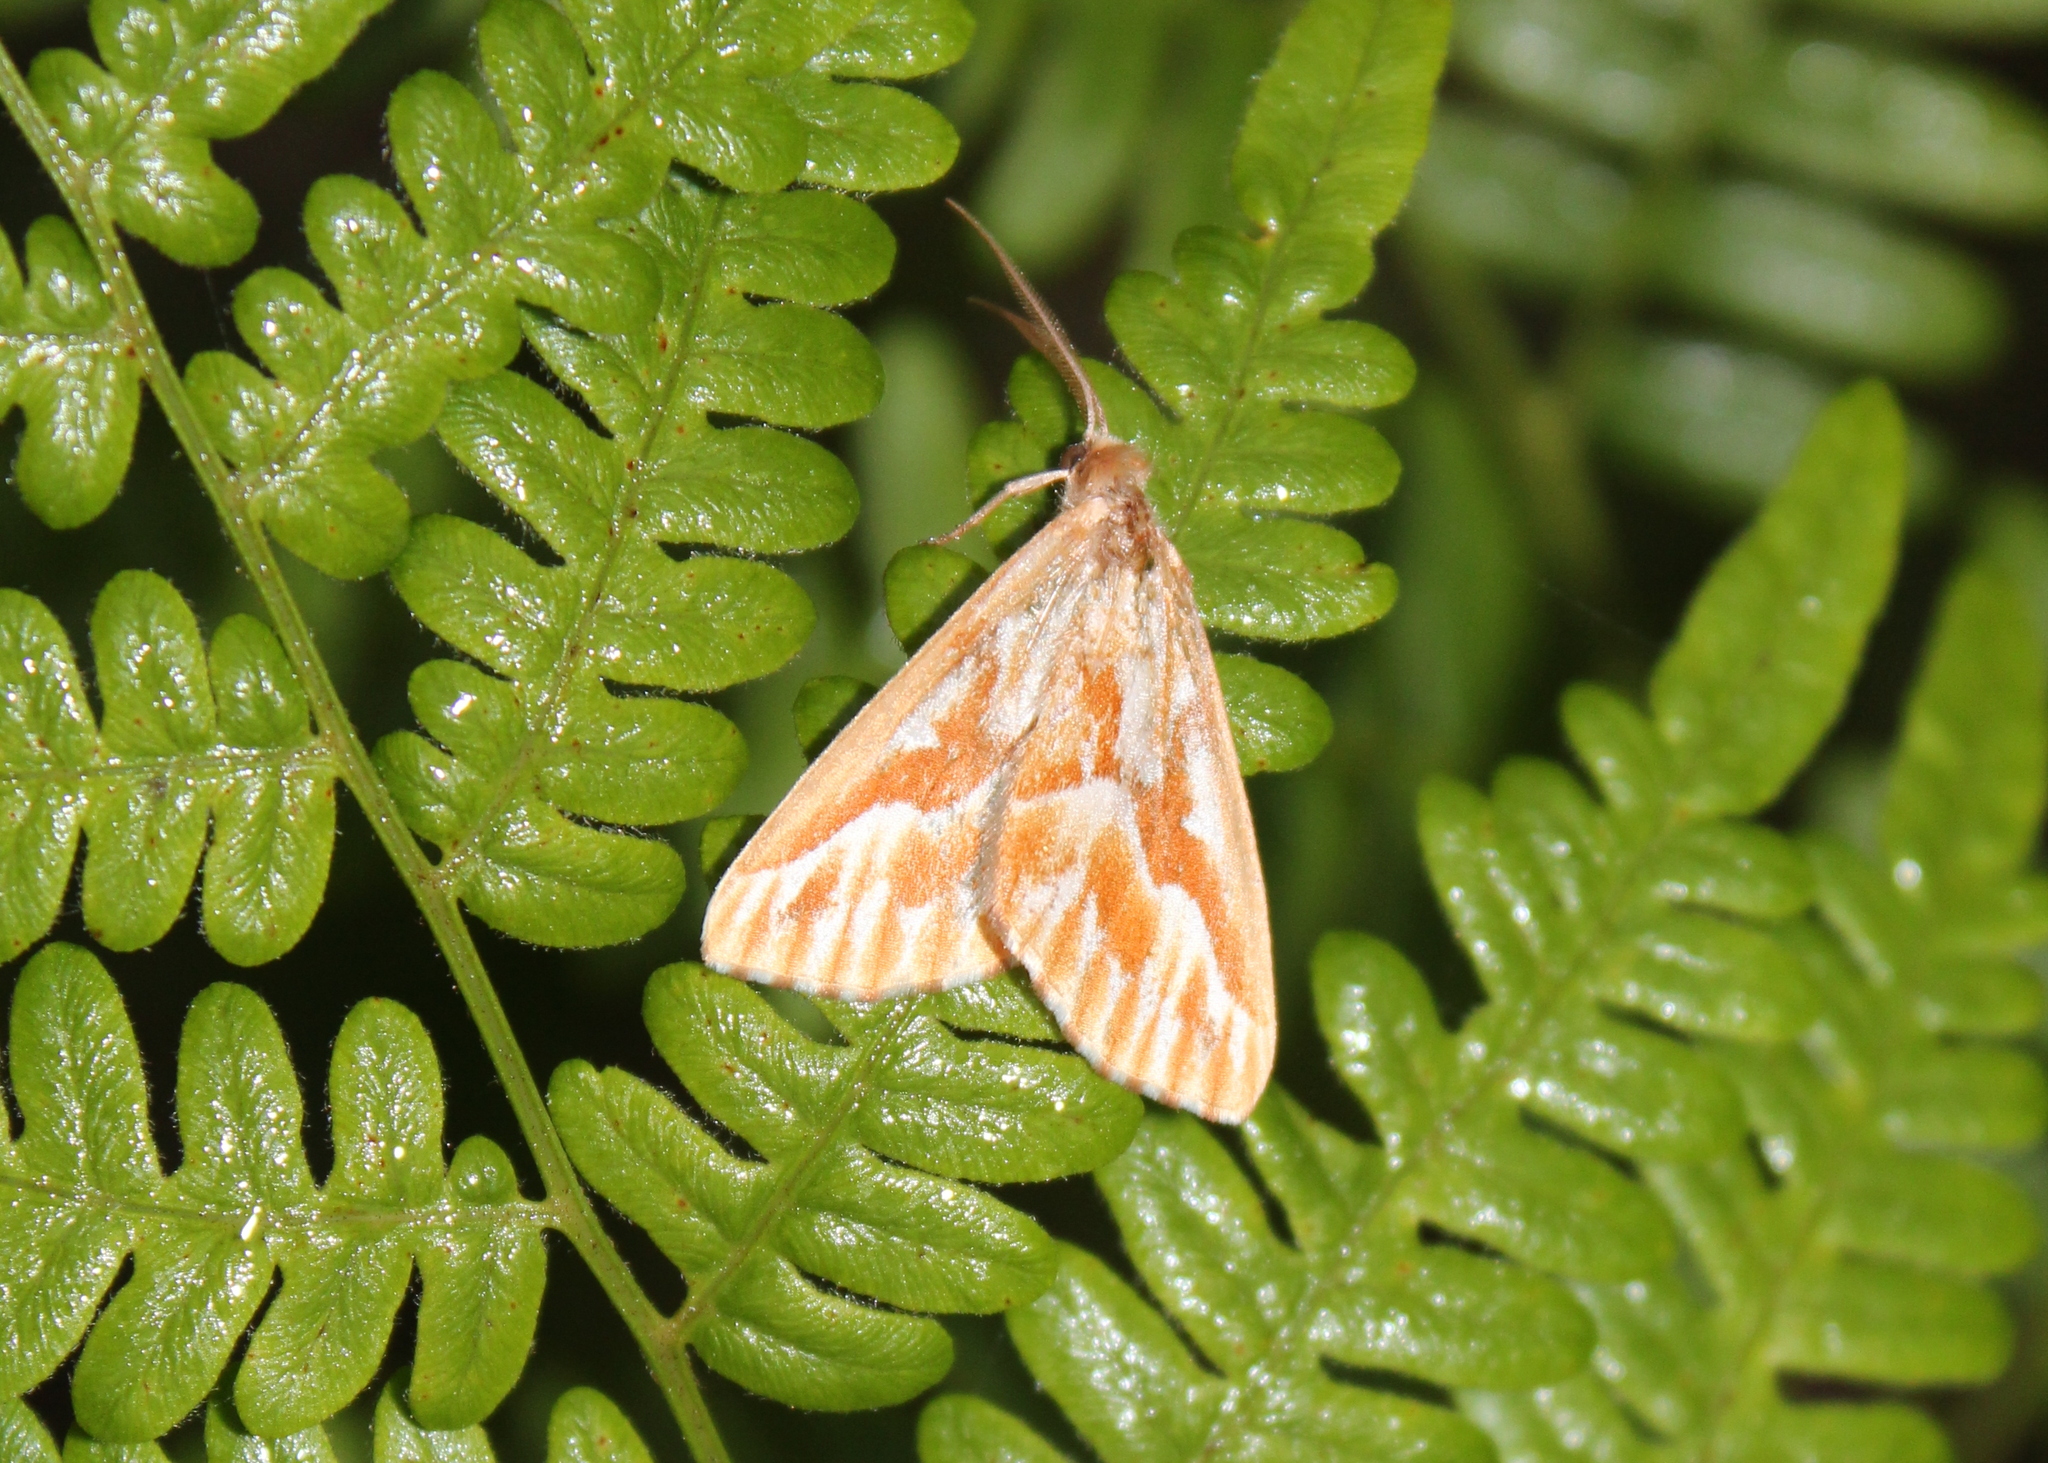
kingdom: Animalia
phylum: Arthropoda
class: Insecta
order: Lepidoptera
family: Geometridae
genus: Caripeta
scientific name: Caripeta piniata
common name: Northern pine looper moth
